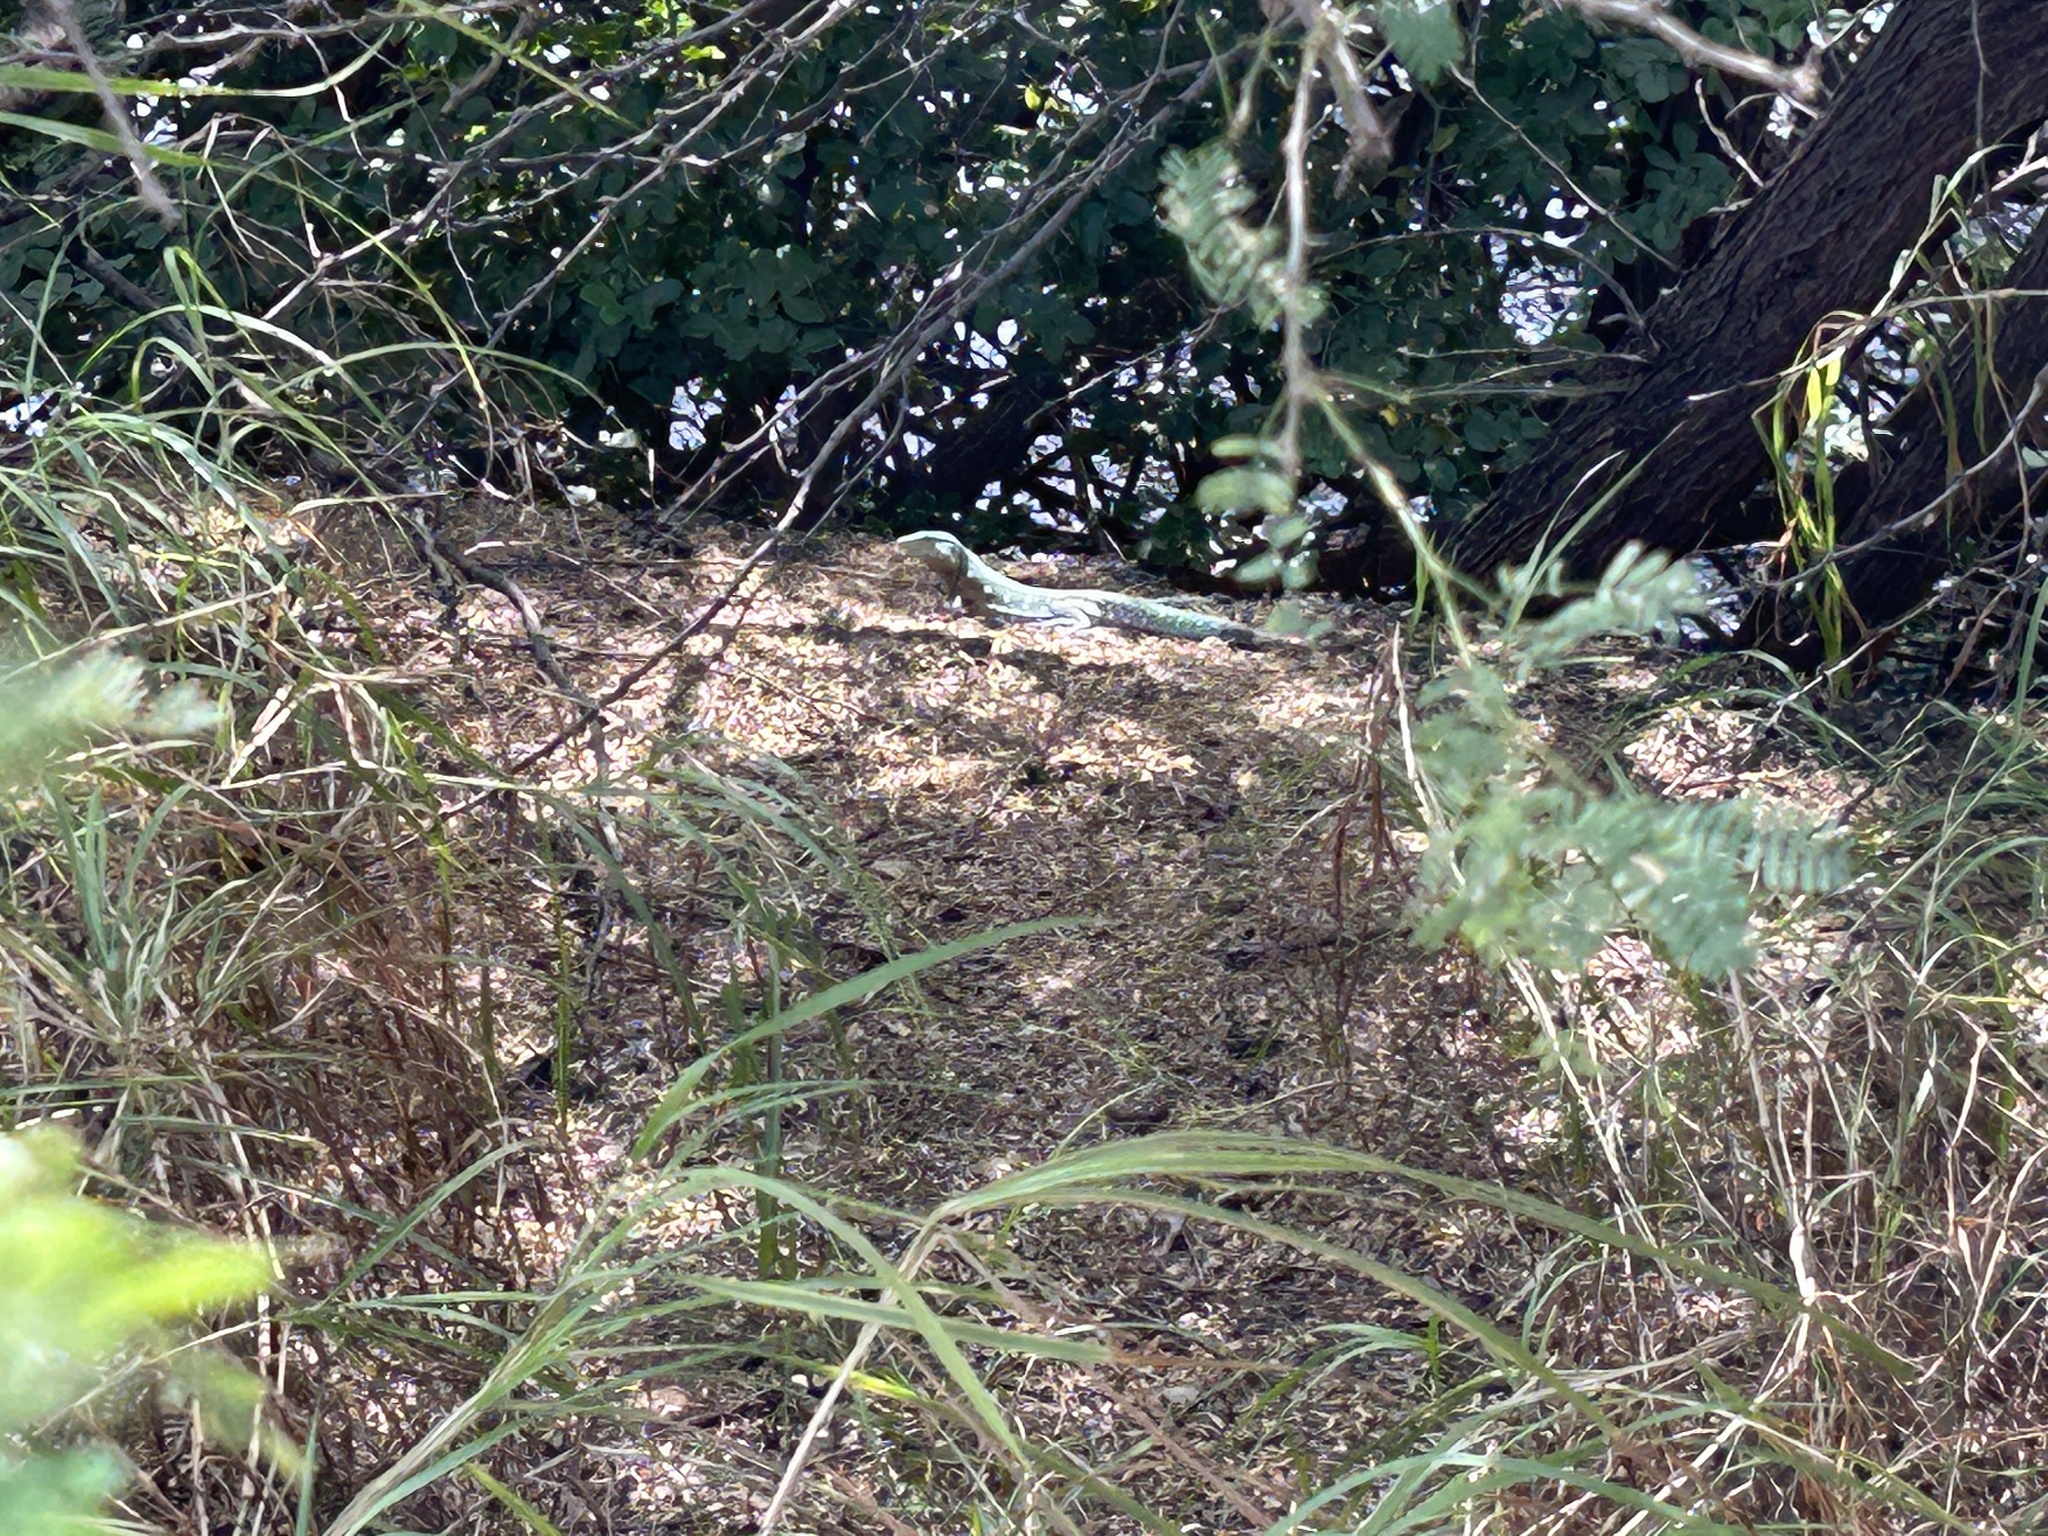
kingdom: Animalia
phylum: Chordata
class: Squamata
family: Teiidae
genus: Cnemidophorus
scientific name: Cnemidophorus murinus
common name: Laurent's whiptail
